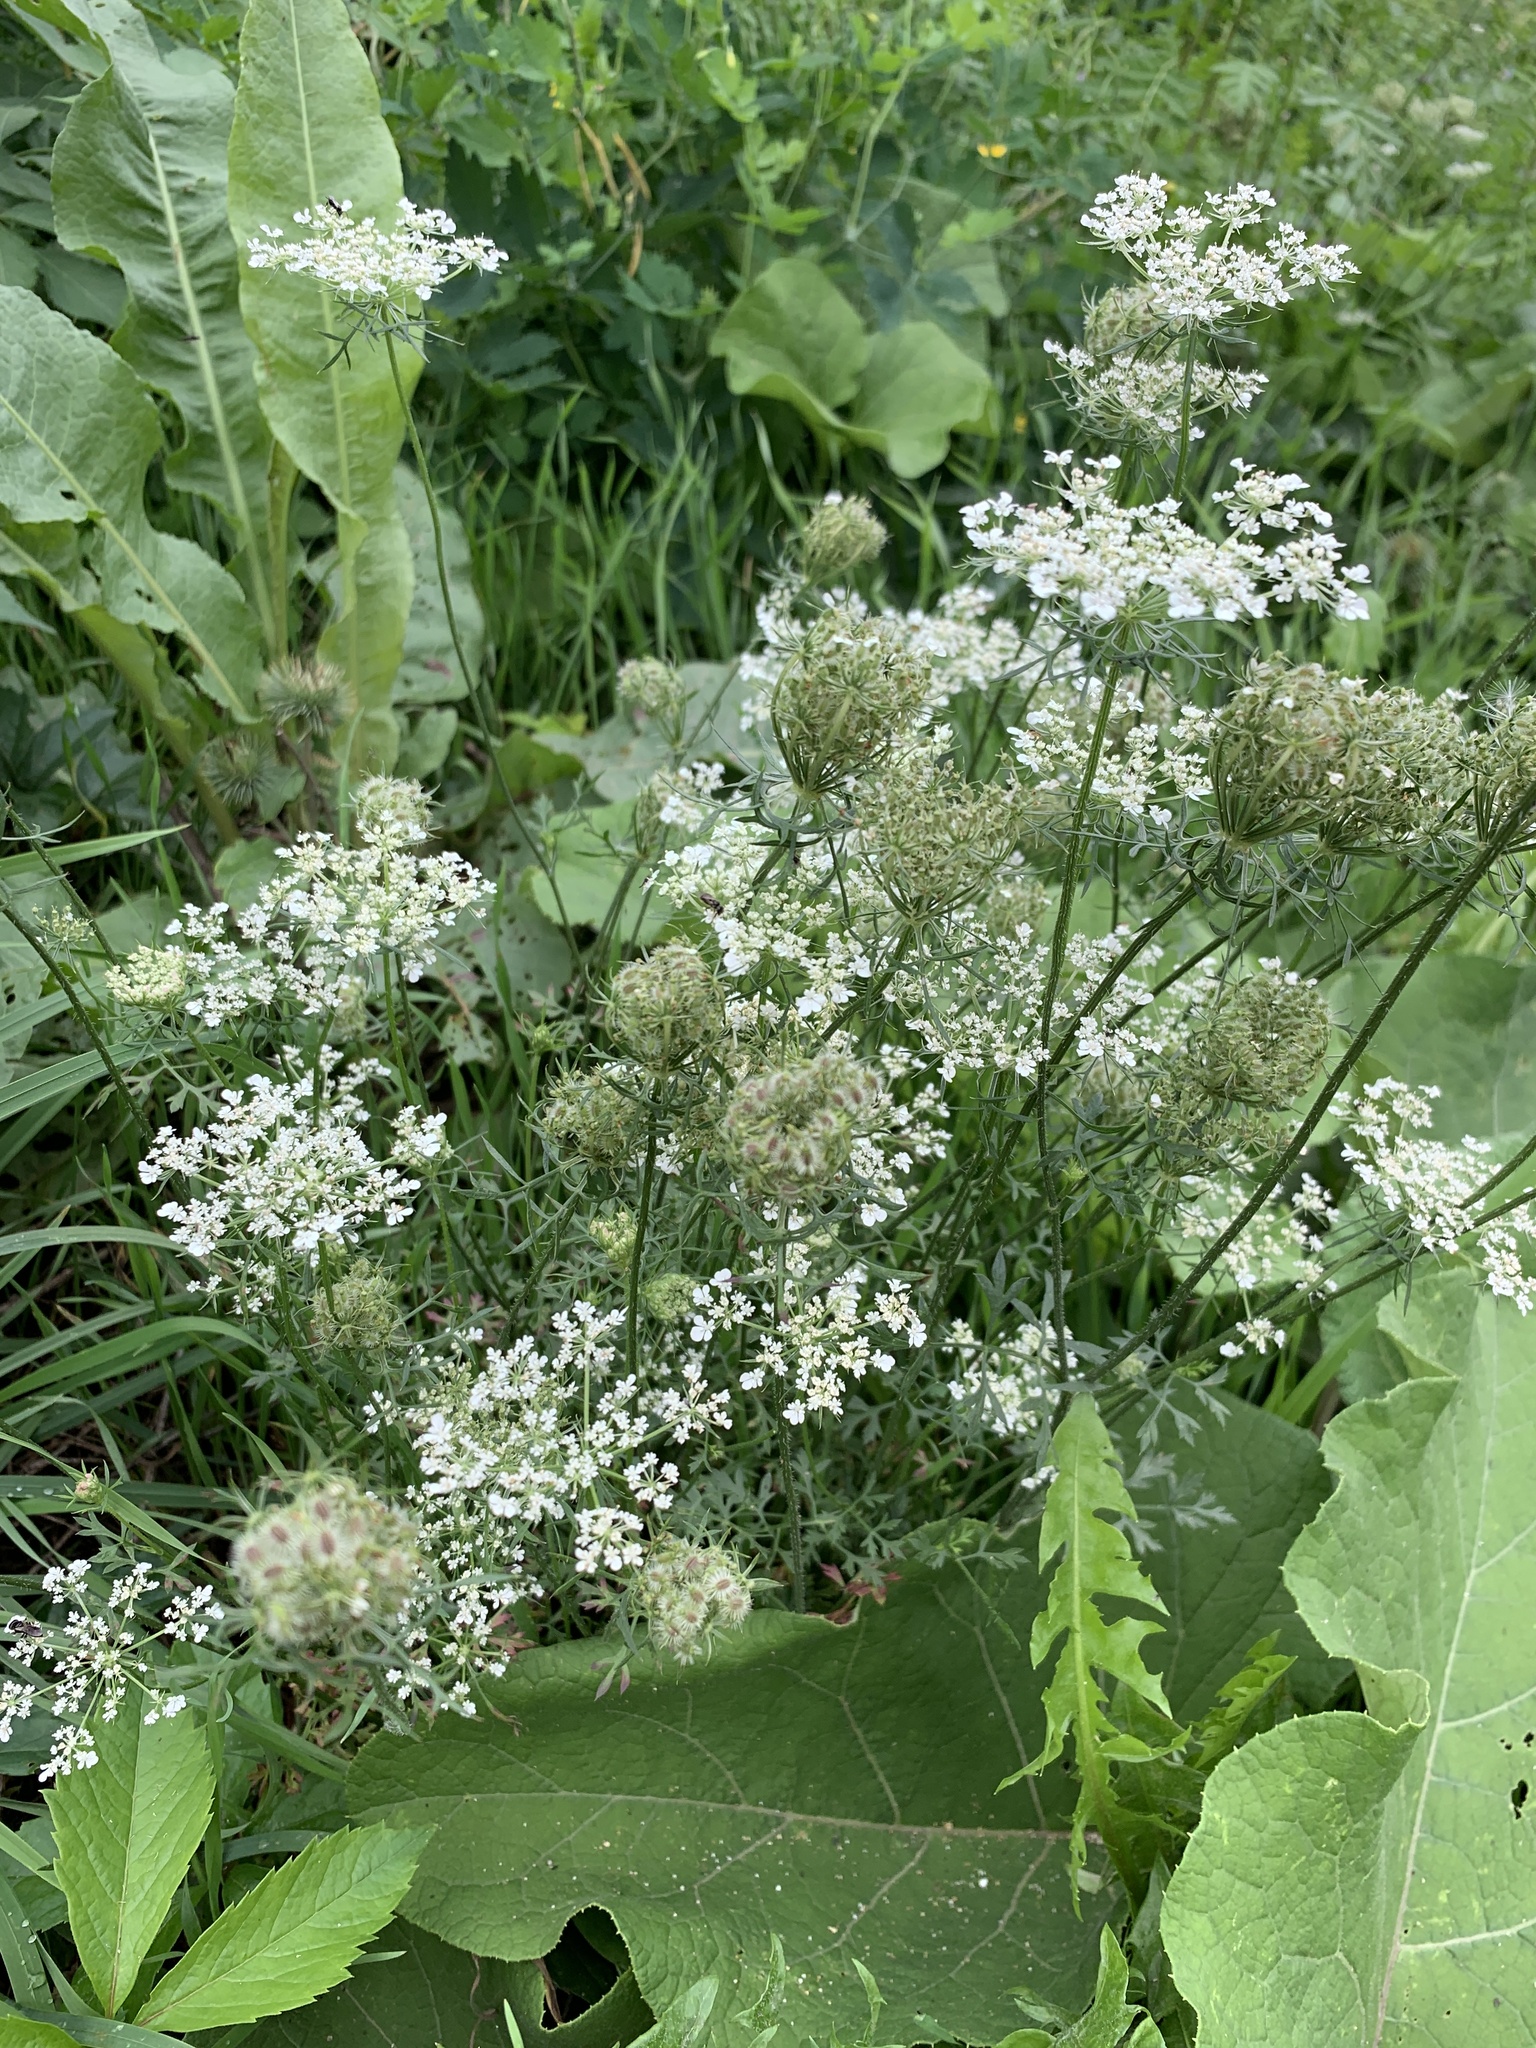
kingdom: Plantae
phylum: Tracheophyta
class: Magnoliopsida
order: Apiales
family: Apiaceae
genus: Daucus
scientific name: Daucus carota
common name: Wild carrot
